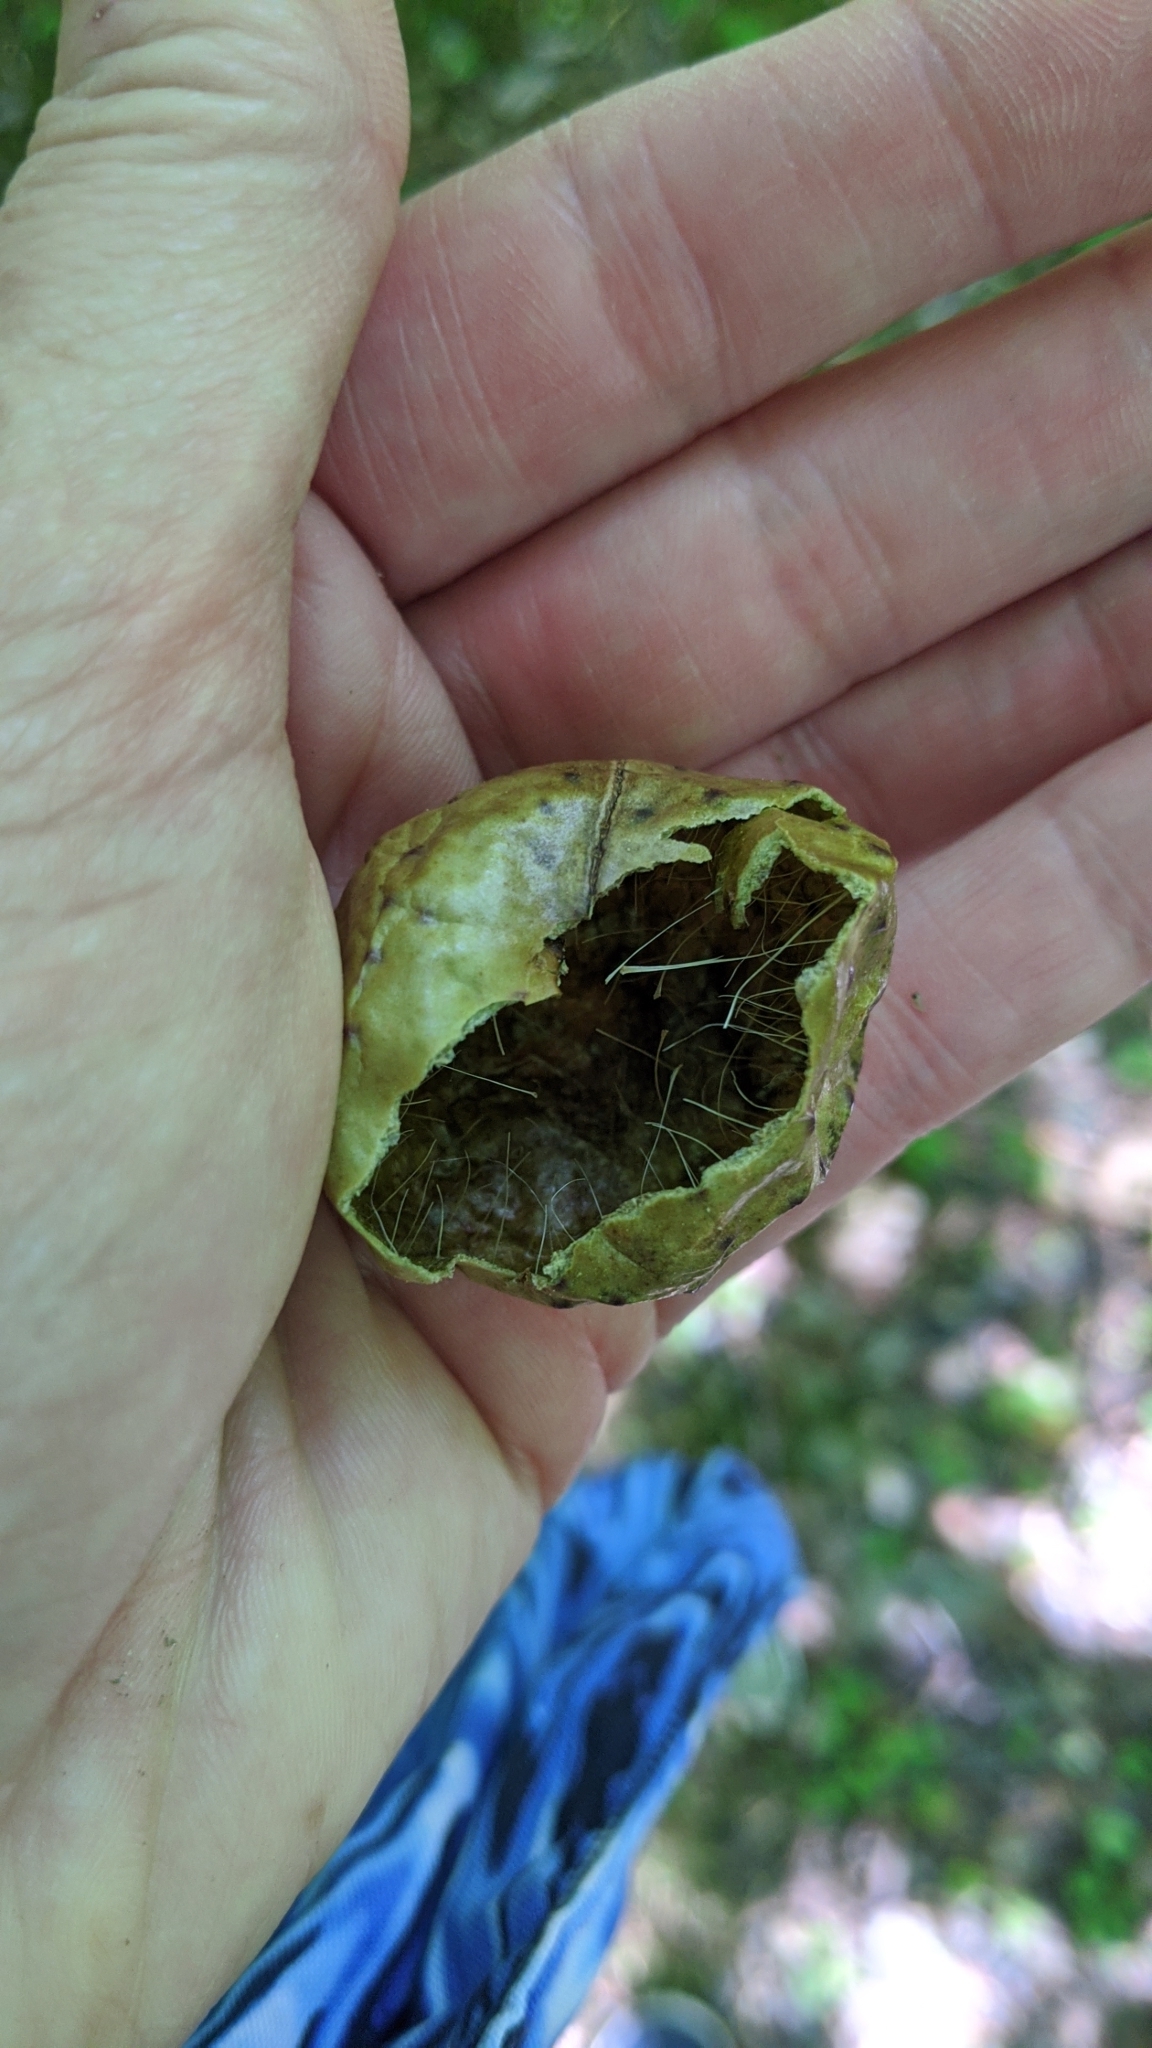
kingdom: Animalia
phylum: Arthropoda
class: Insecta
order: Hymenoptera
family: Cynipidae
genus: Amphibolips
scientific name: Amphibolips
